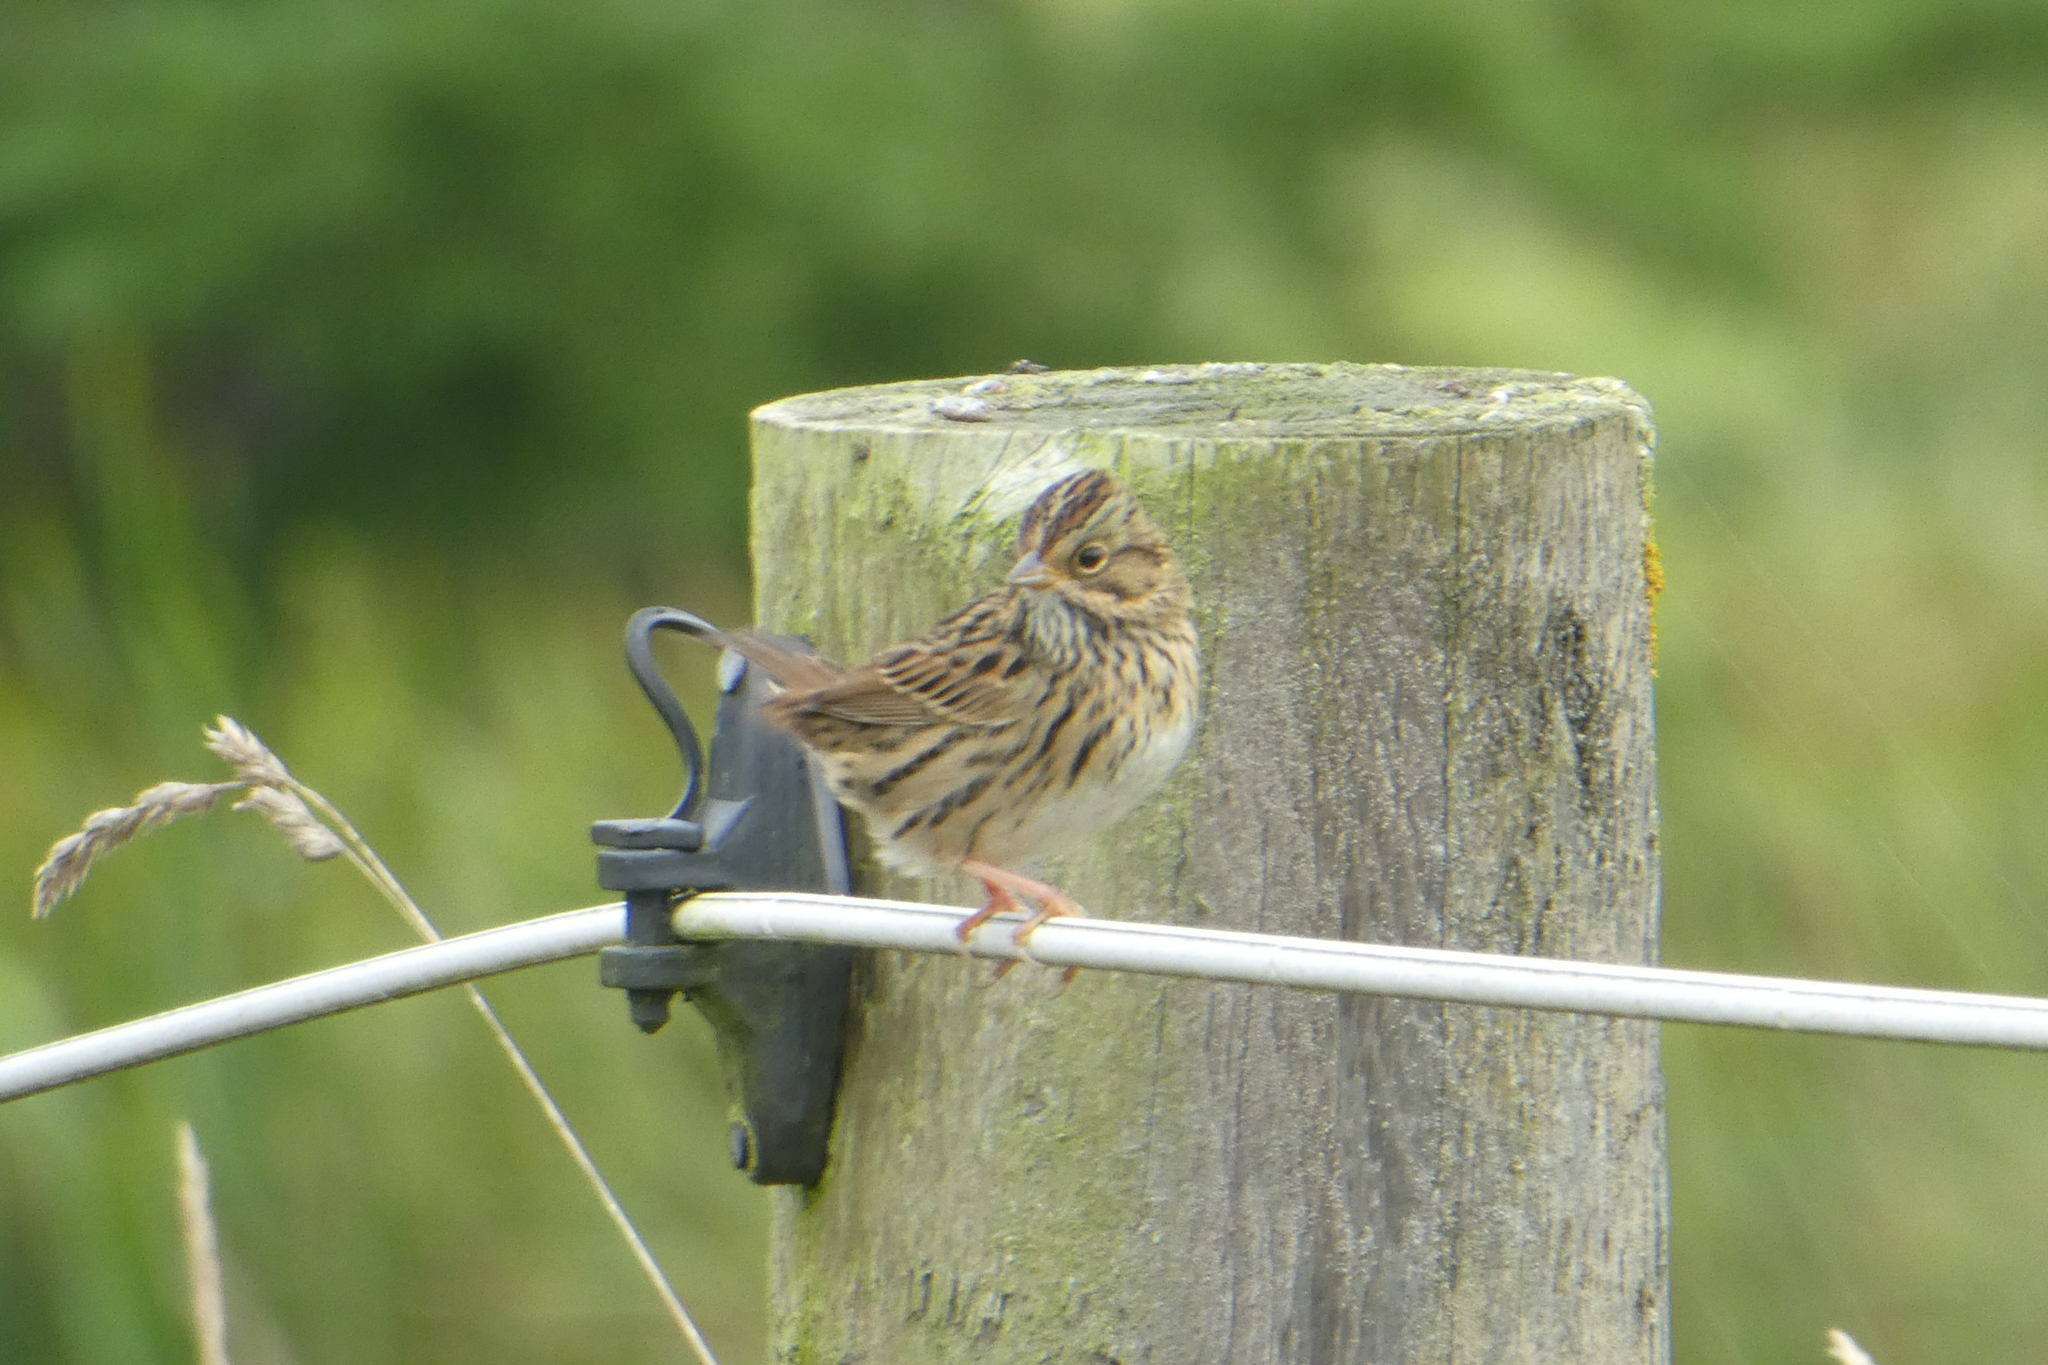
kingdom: Animalia
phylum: Chordata
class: Aves
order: Passeriformes
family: Passerellidae
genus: Melospiza
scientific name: Melospiza lincolnii
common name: Lincoln's sparrow
